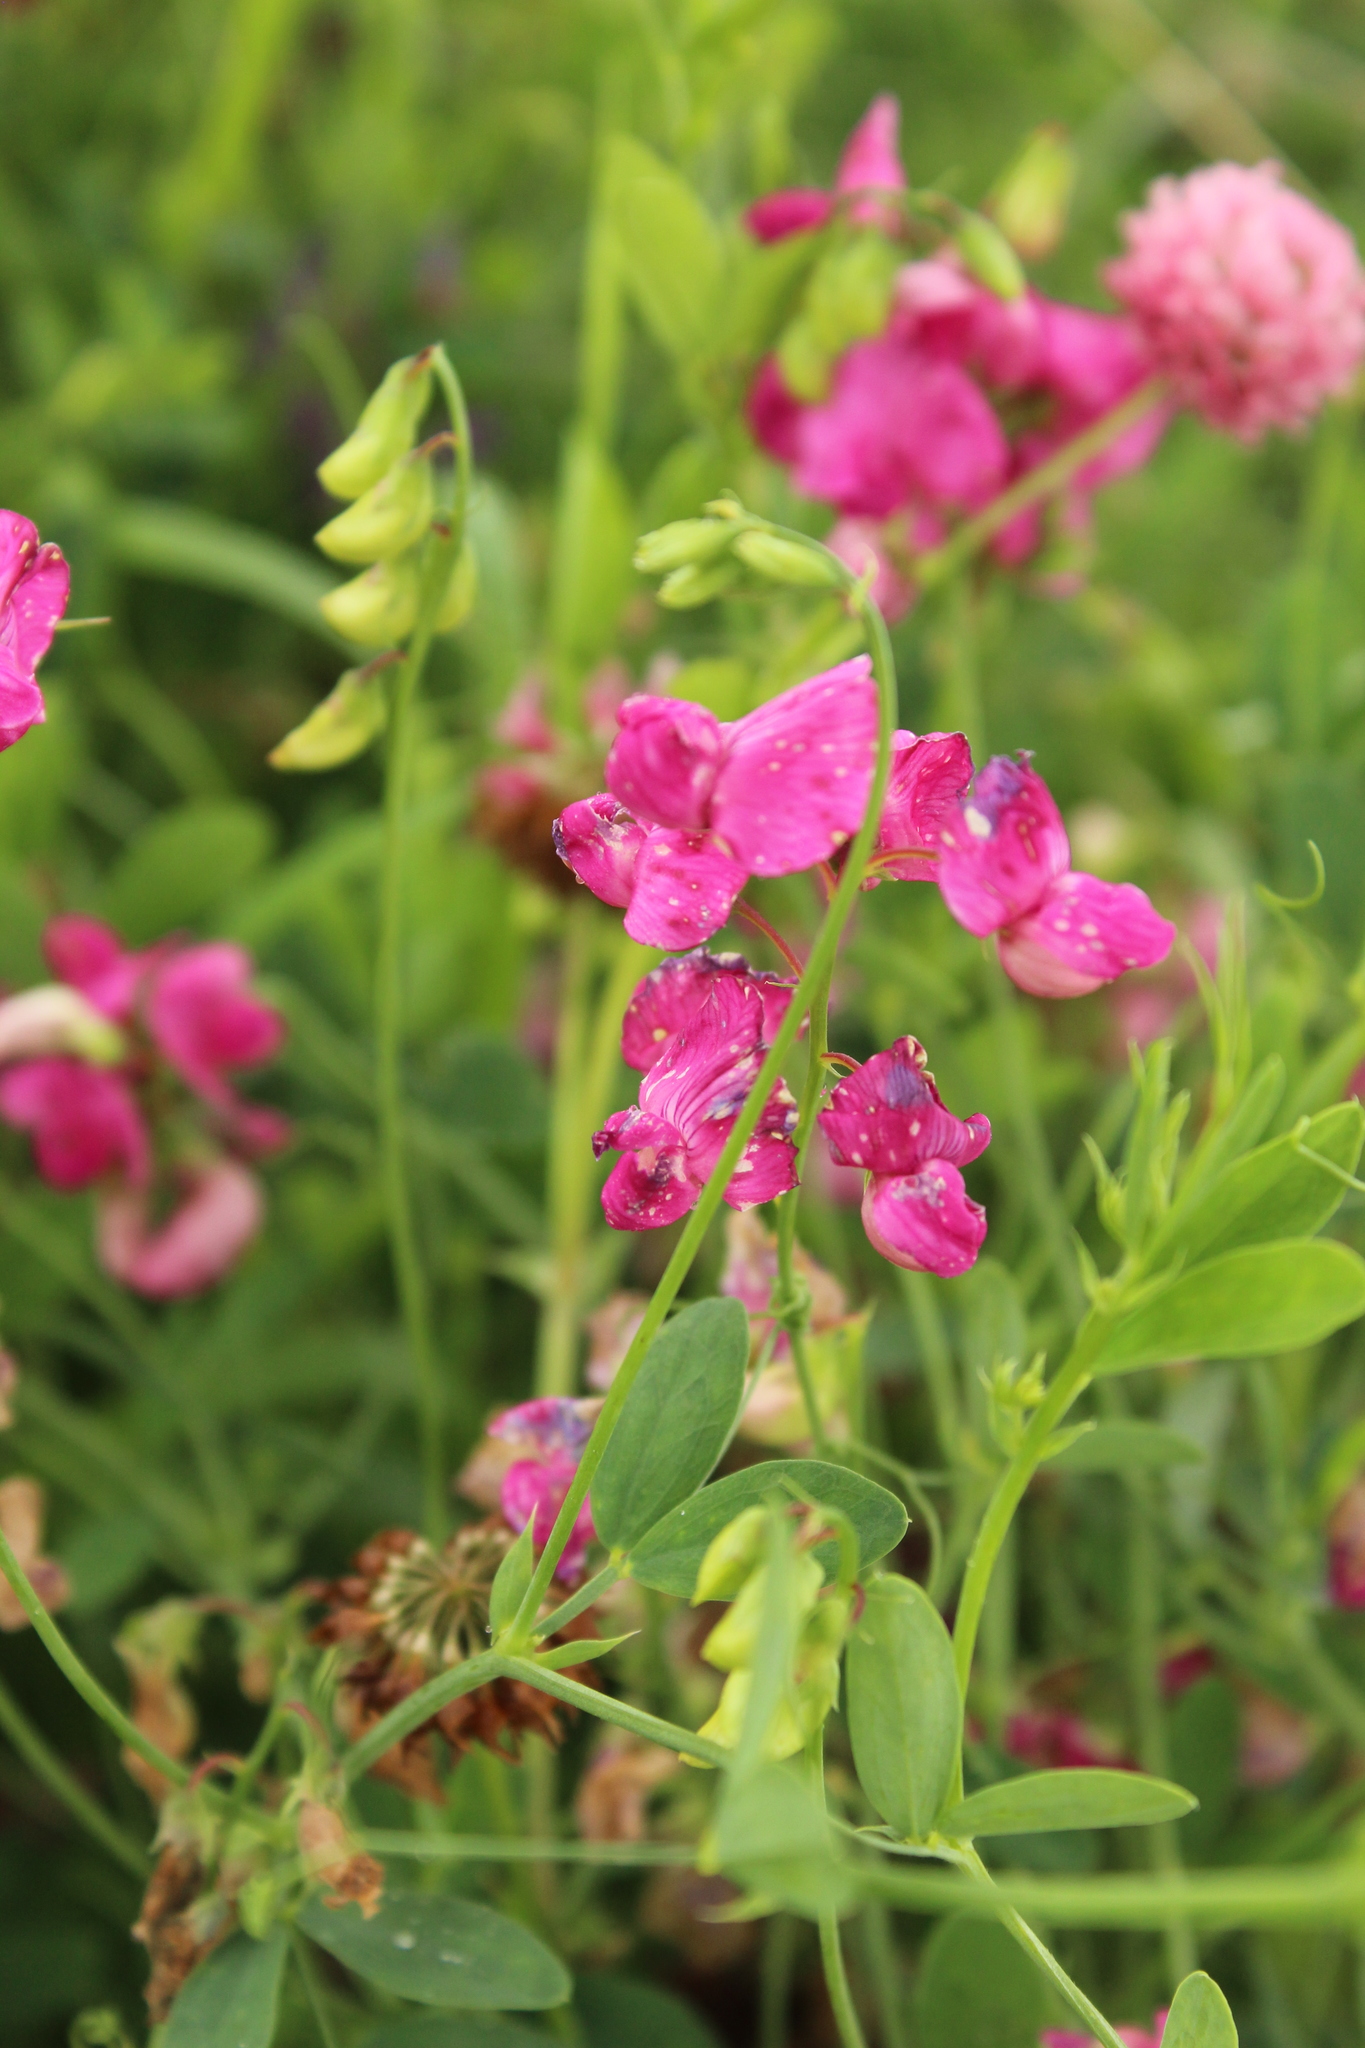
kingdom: Plantae
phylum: Tracheophyta
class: Magnoliopsida
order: Fabales
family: Fabaceae
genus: Lathyrus
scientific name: Lathyrus tuberosus
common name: Tuberous pea
